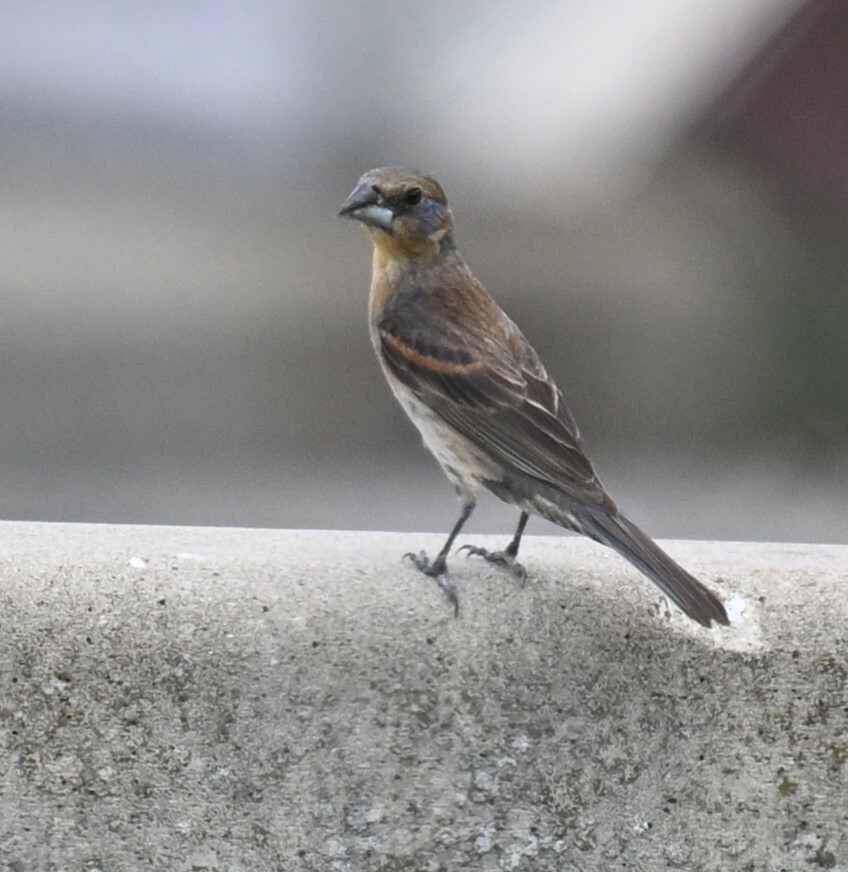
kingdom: Animalia
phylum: Chordata
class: Aves
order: Passeriformes
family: Cardinalidae
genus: Passerina
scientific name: Passerina caerulea
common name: Blue grosbeak
